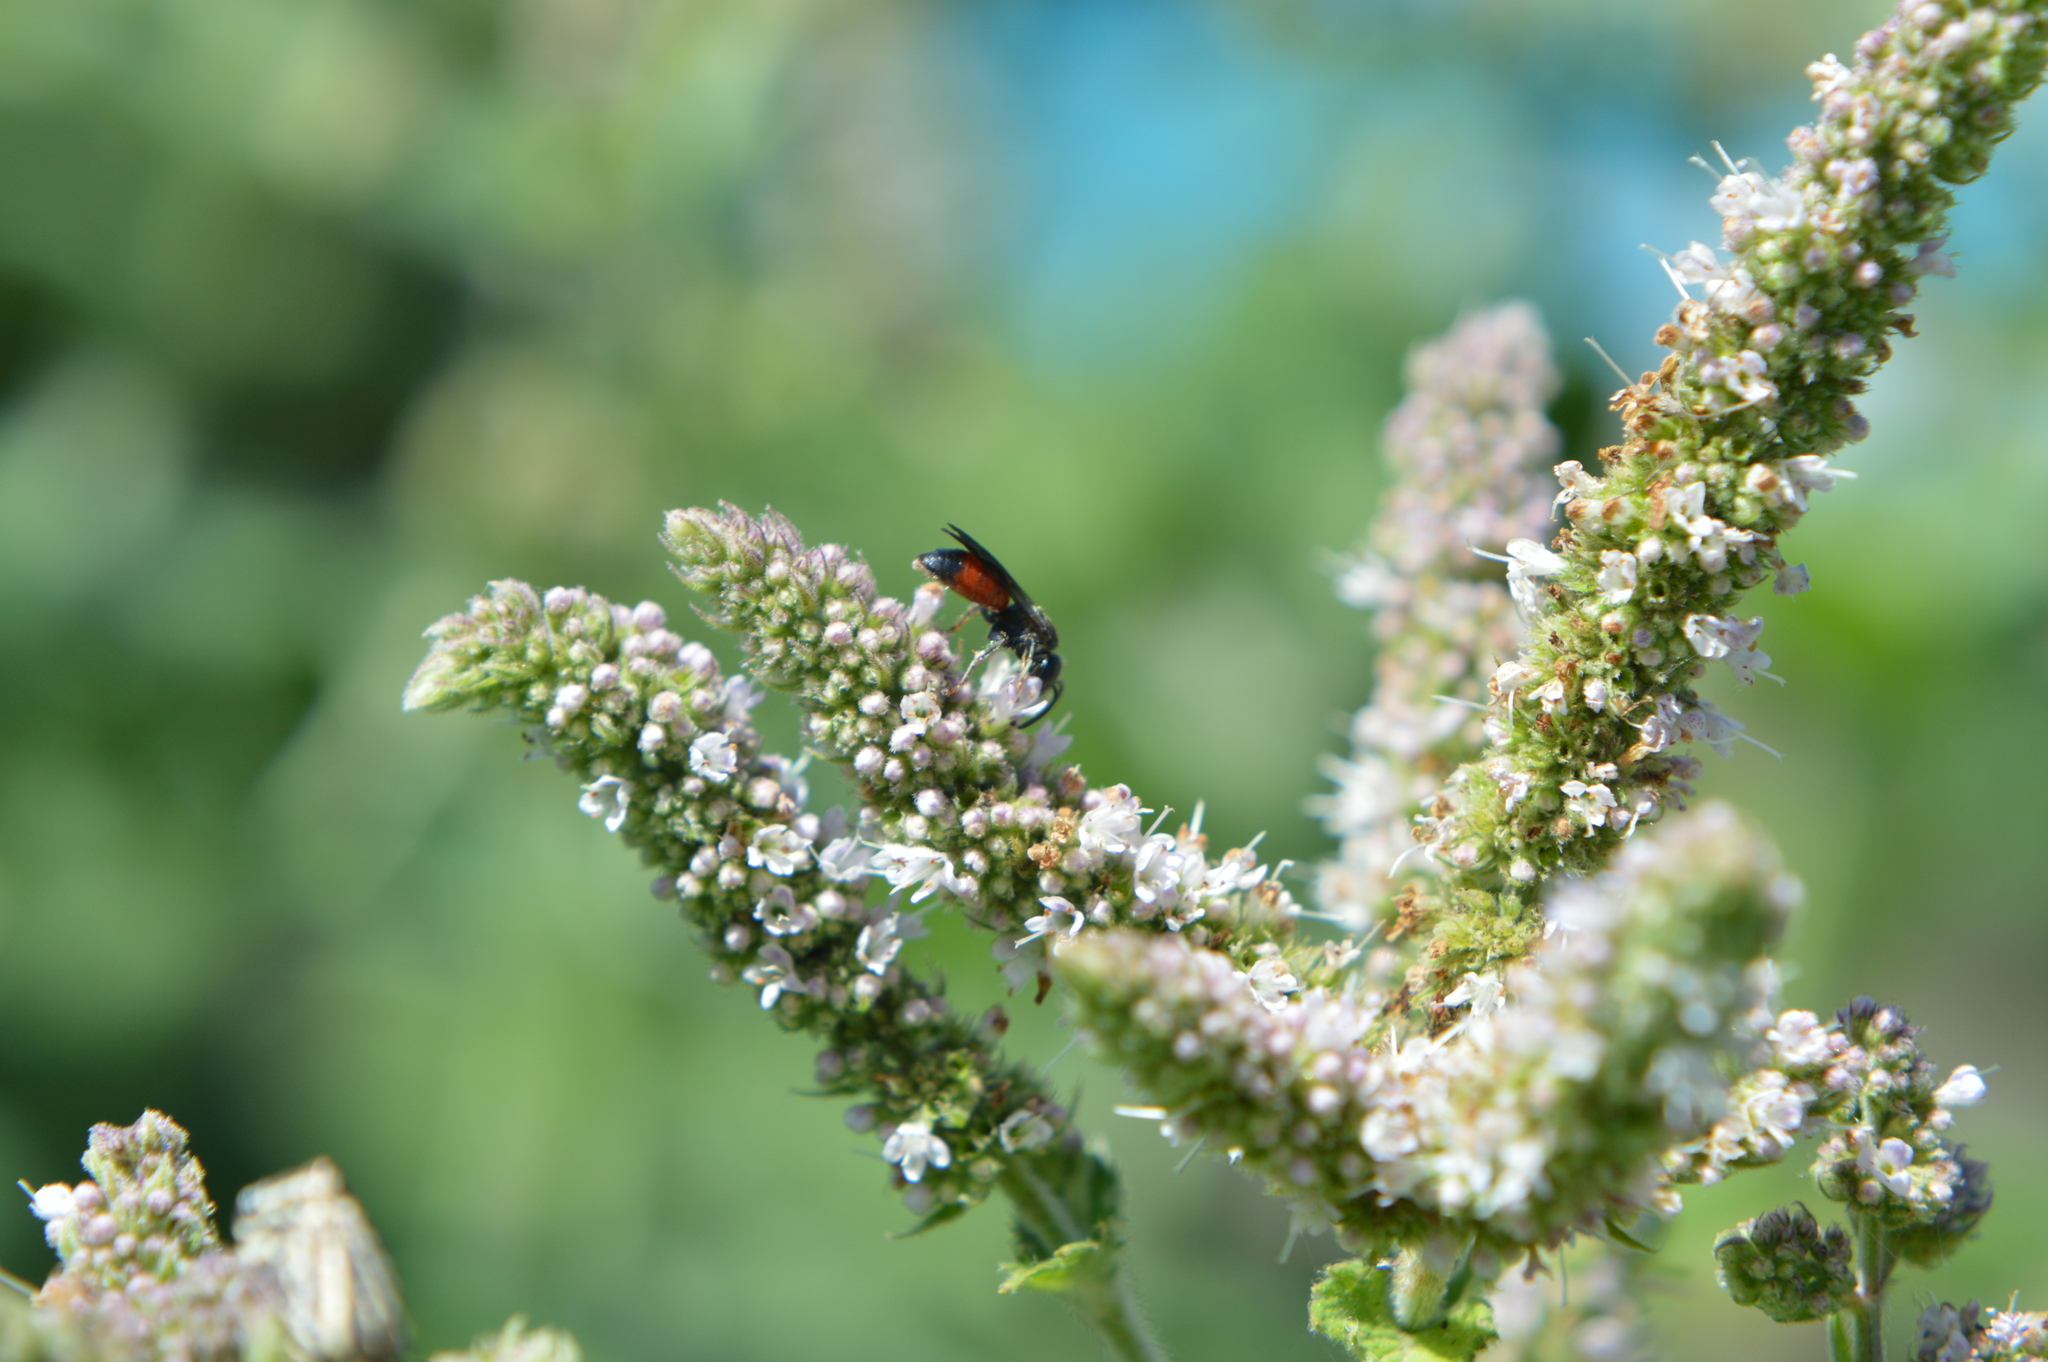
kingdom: Animalia
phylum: Arthropoda
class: Insecta
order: Hymenoptera
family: Halictidae
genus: Sphecodes
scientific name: Sphecodes
